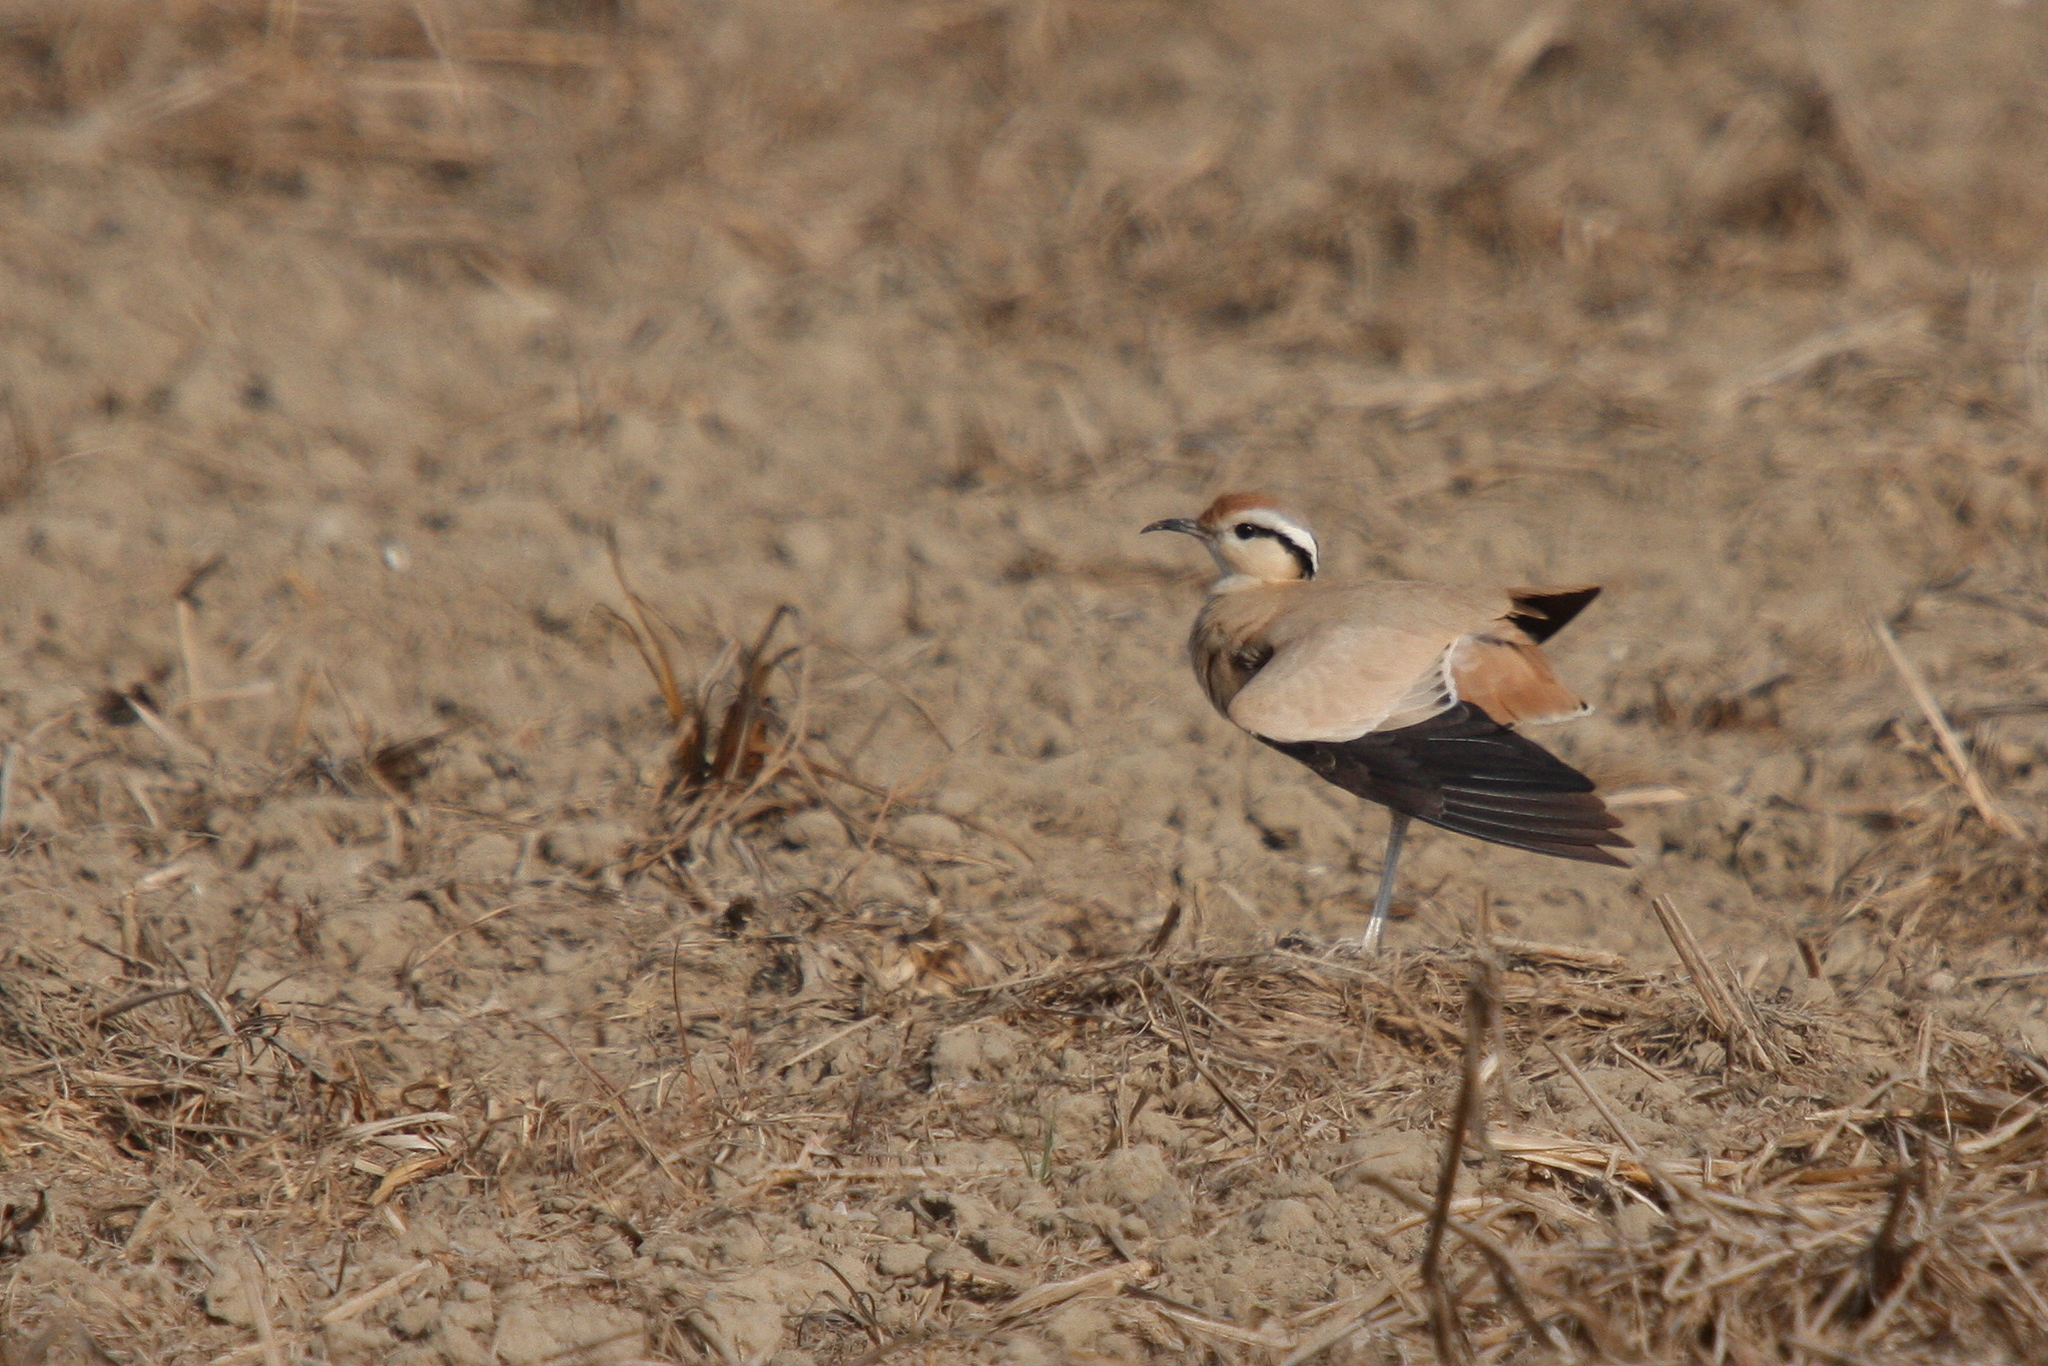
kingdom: Animalia
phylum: Chordata
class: Aves
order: Charadriiformes
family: Glareolidae
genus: Cursorius
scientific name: Cursorius cursor
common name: Cream-colored courser
